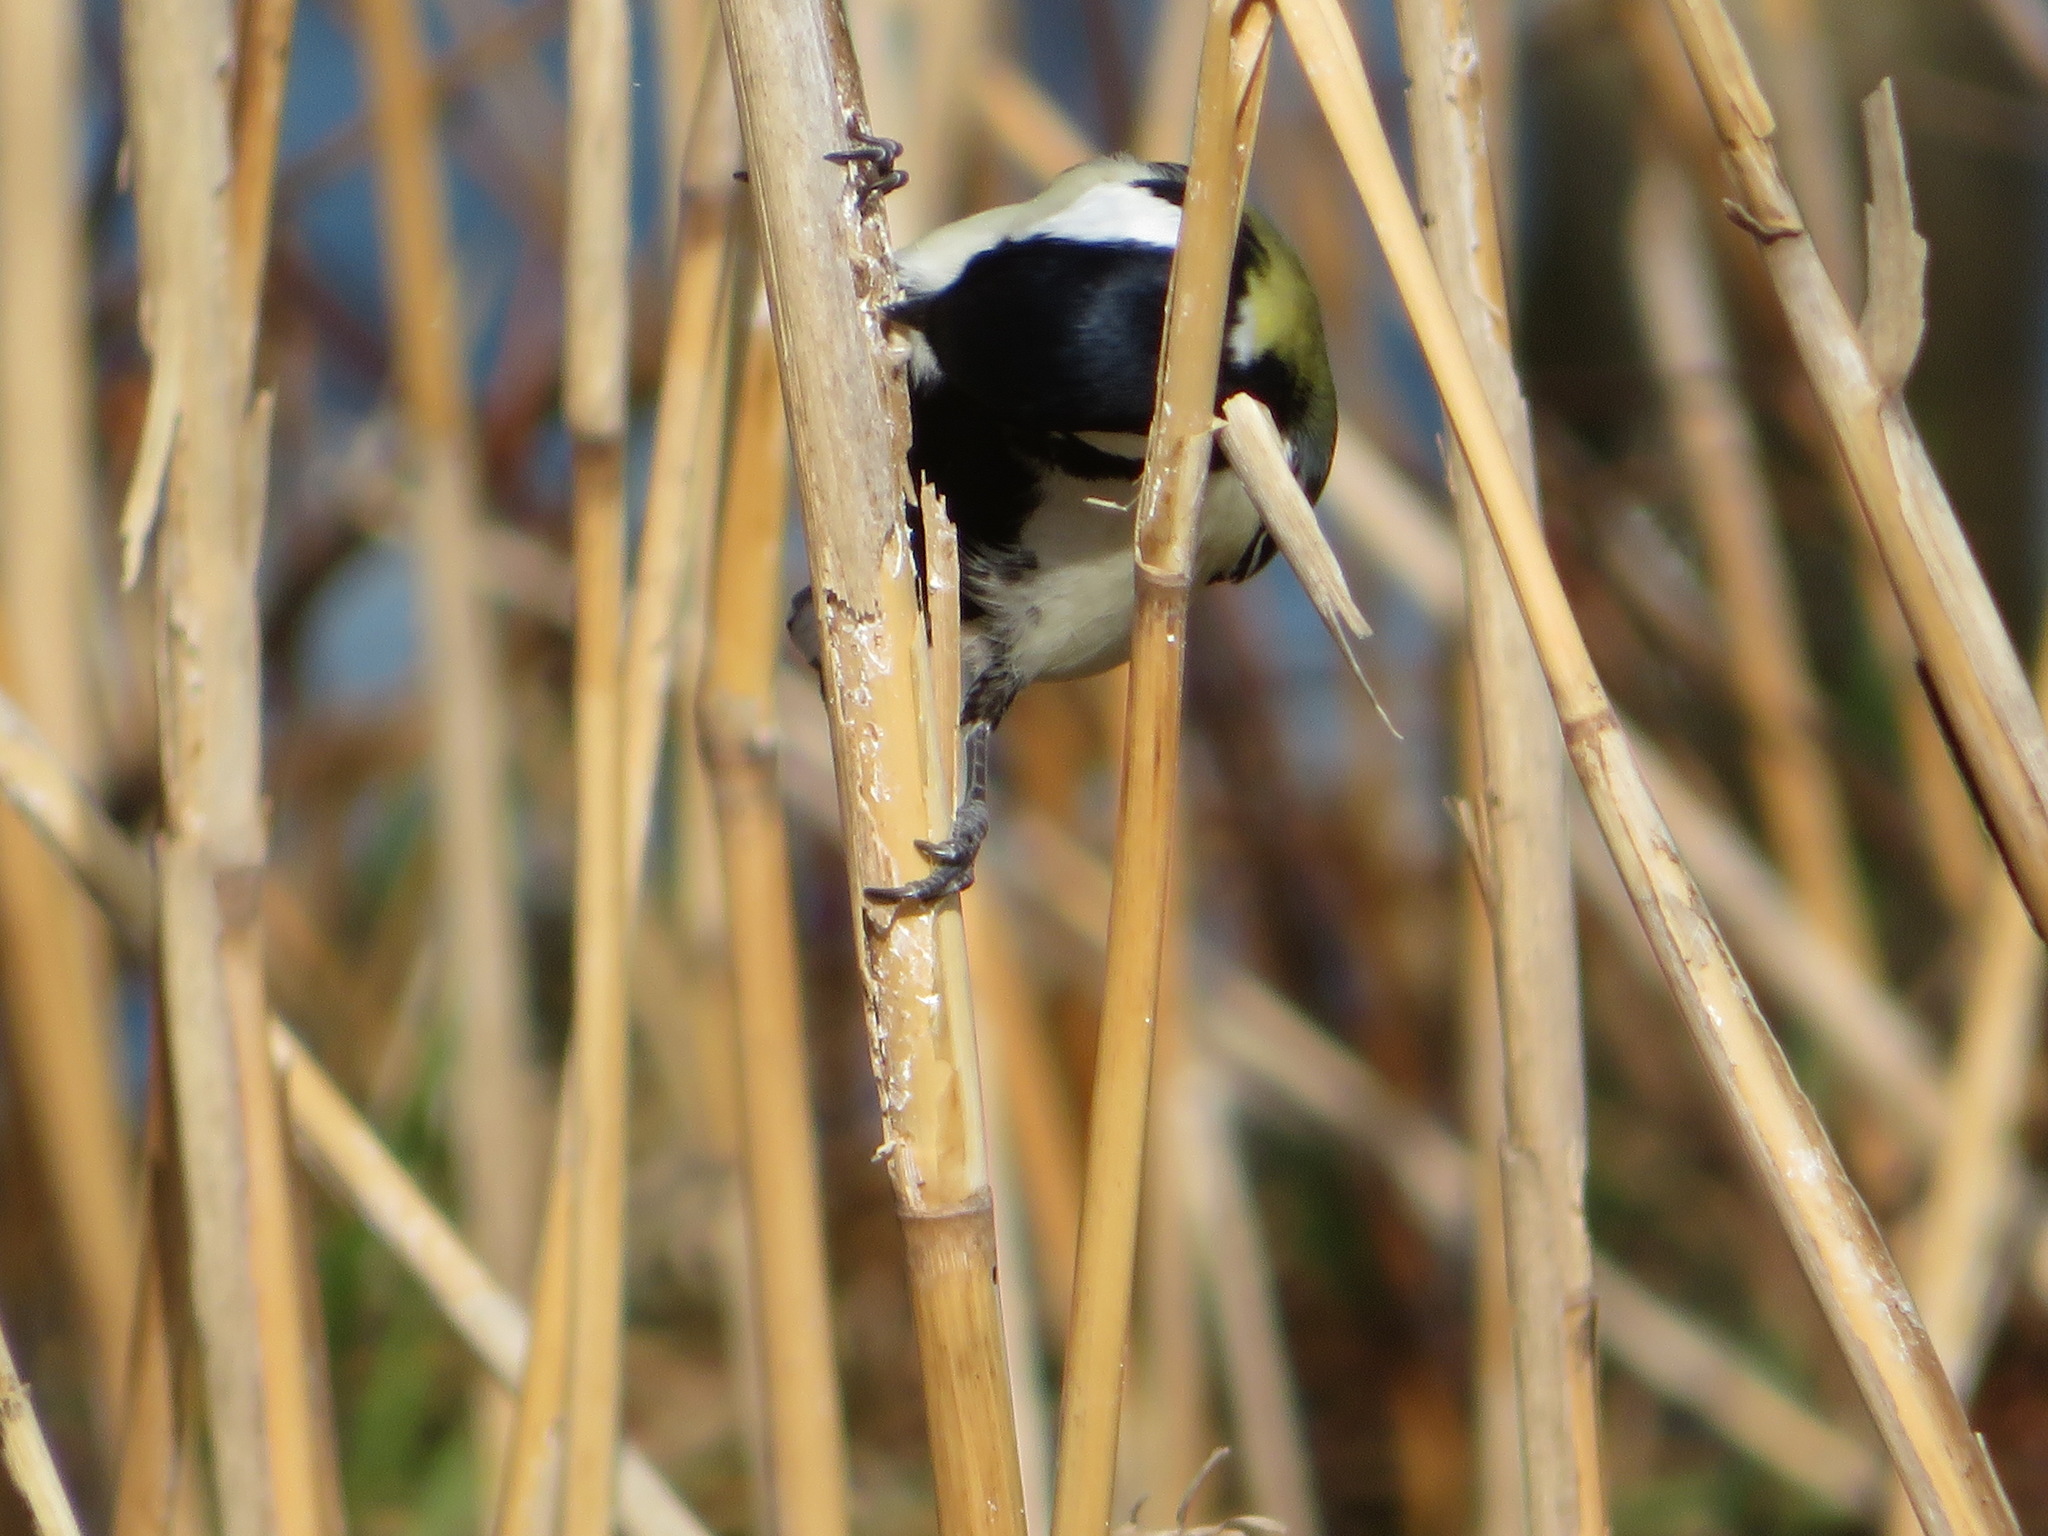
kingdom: Animalia
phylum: Chordata
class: Aves
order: Passeriformes
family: Paridae
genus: Parus
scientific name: Parus minor
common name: Japanese tit
